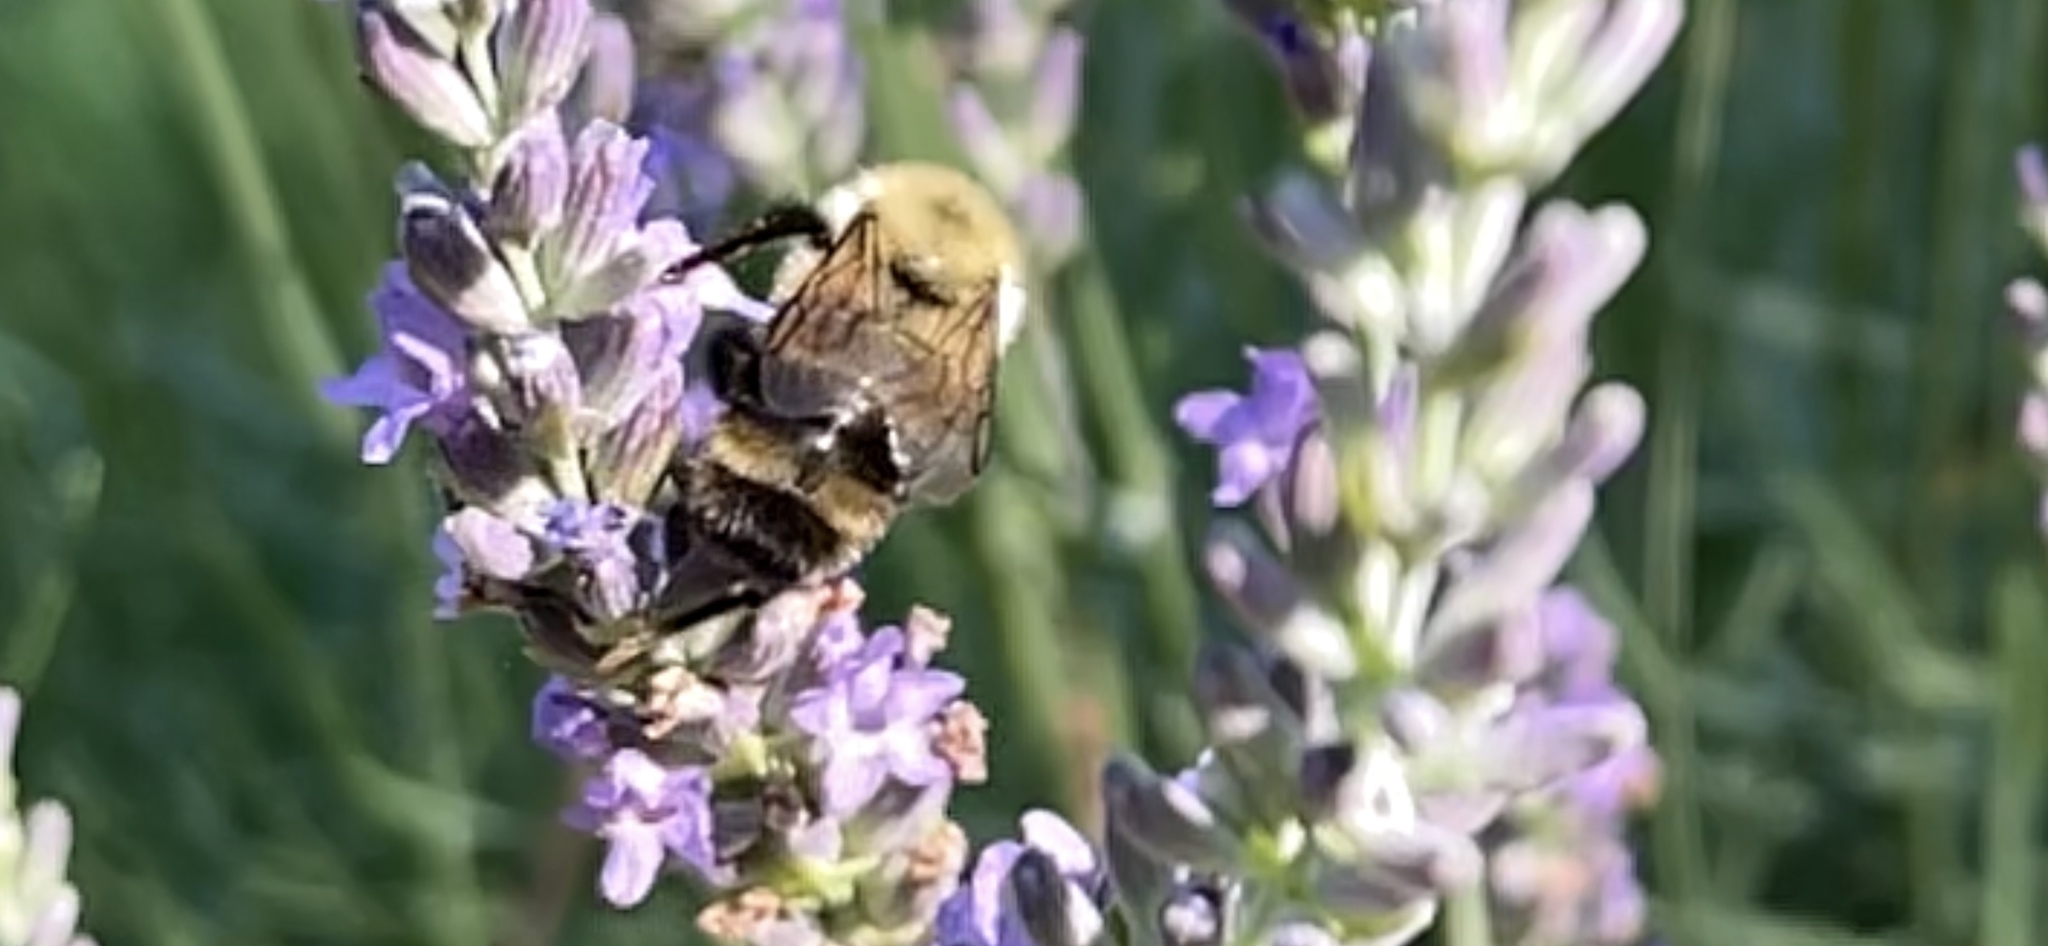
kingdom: Animalia
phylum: Arthropoda
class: Insecta
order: Hymenoptera
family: Apidae
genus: Bombus
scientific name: Bombus bimaculatus
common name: Two-spotted bumble bee
